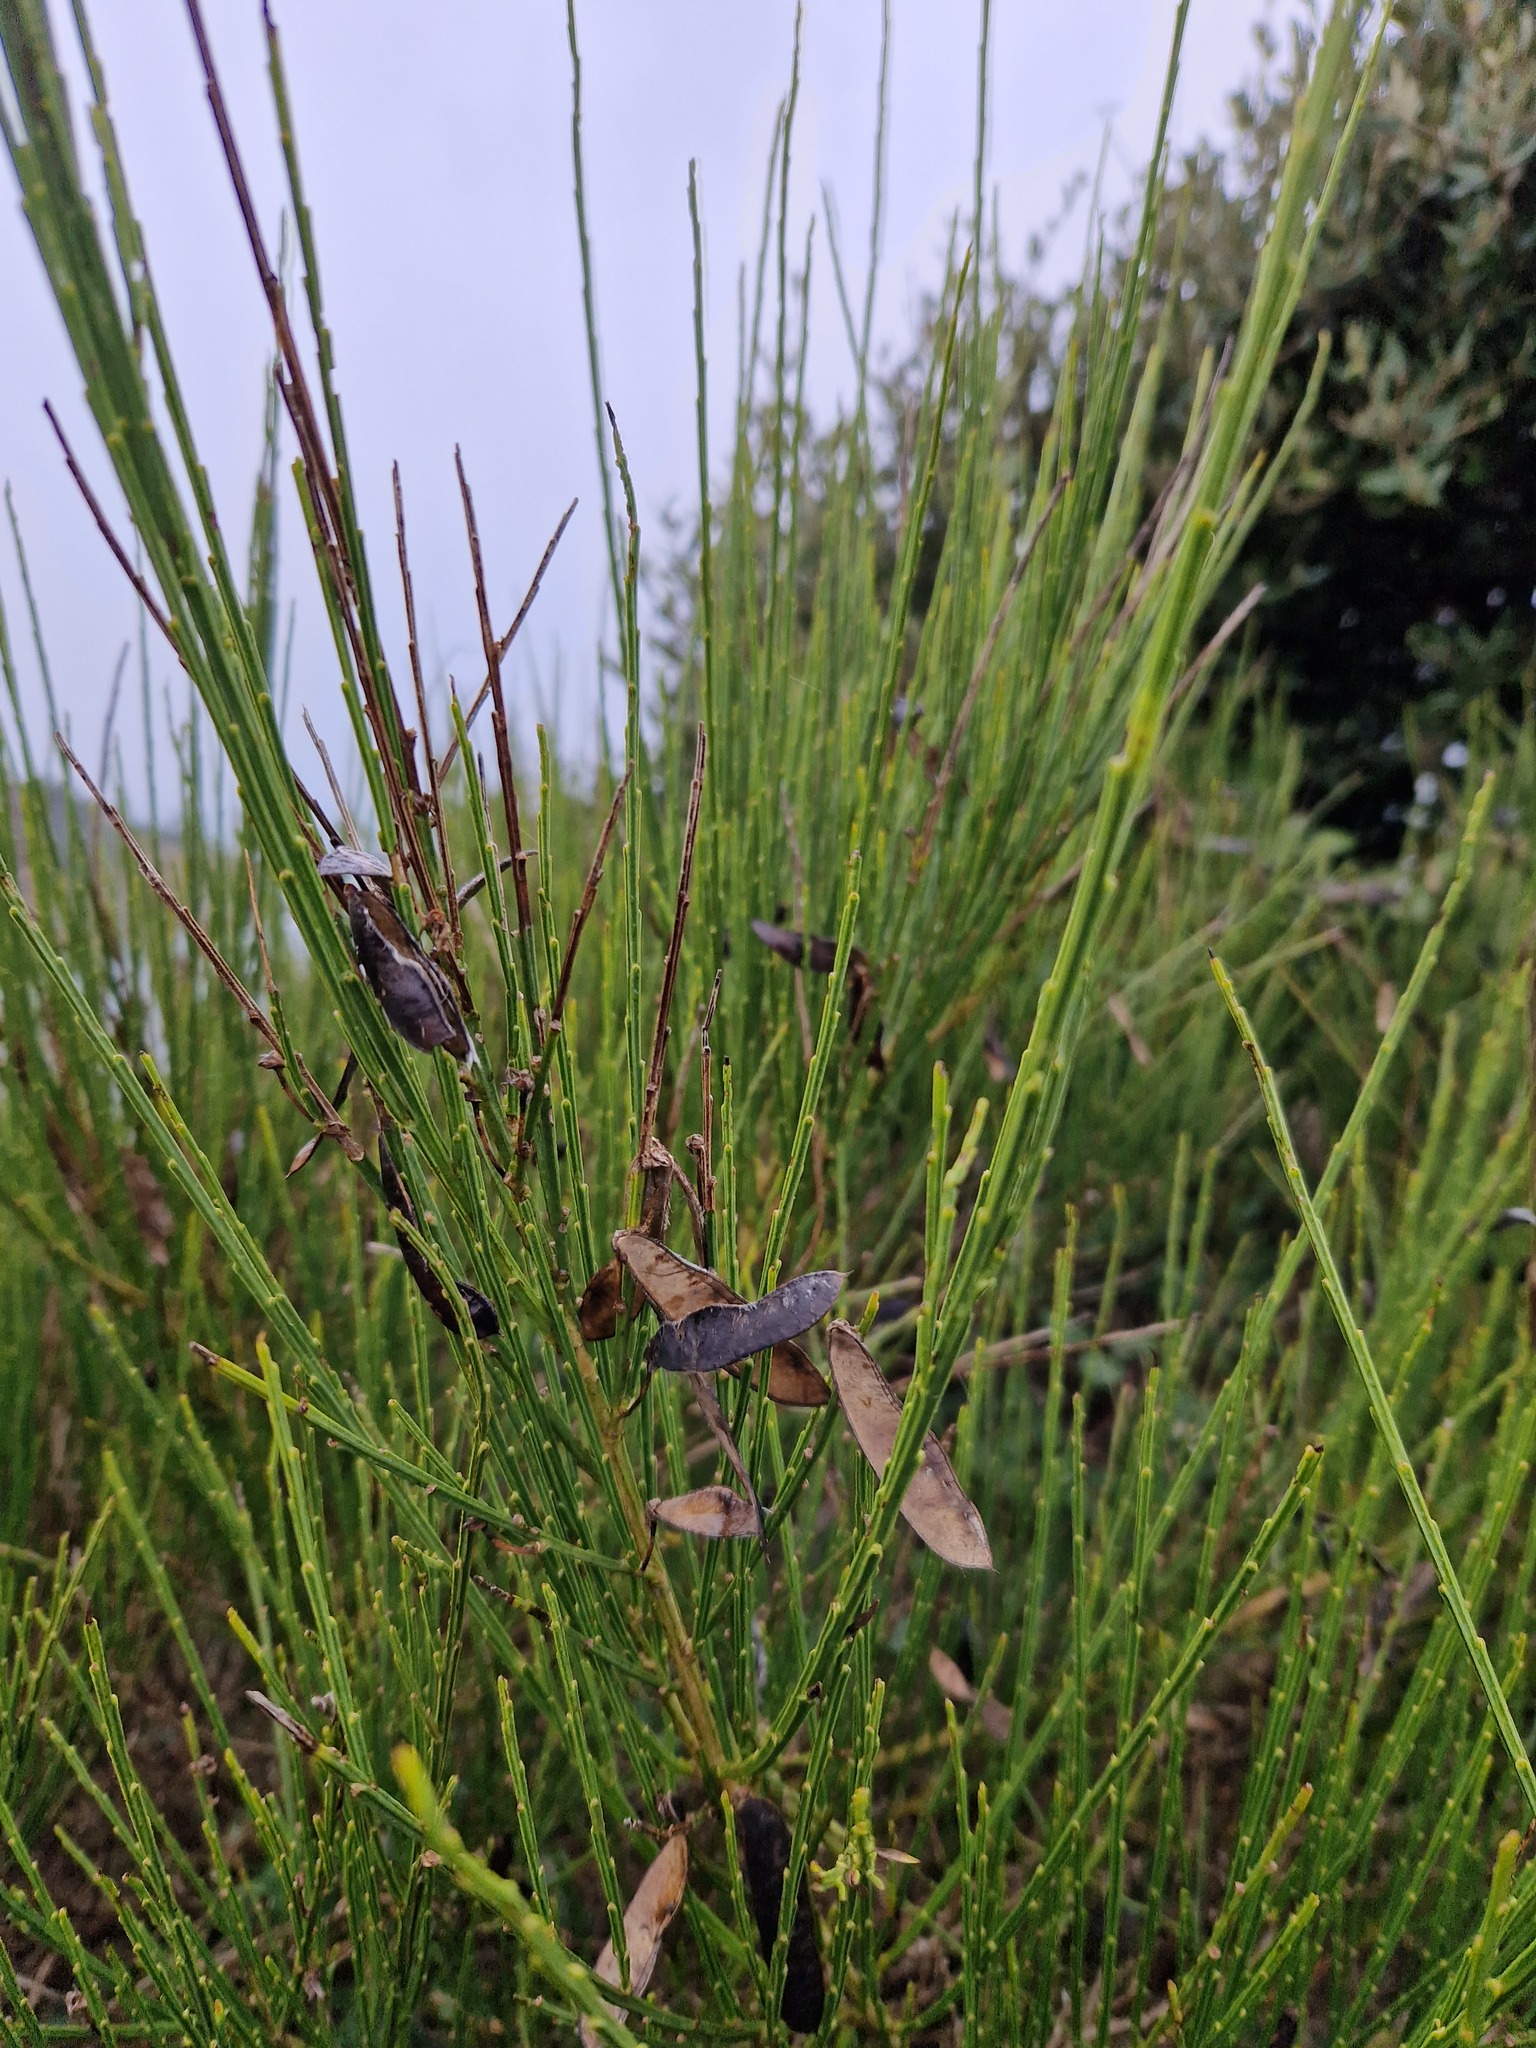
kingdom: Plantae
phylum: Tracheophyta
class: Magnoliopsida
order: Fabales
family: Fabaceae
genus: Cytisus
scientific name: Cytisus scoparius
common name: Scotch broom
